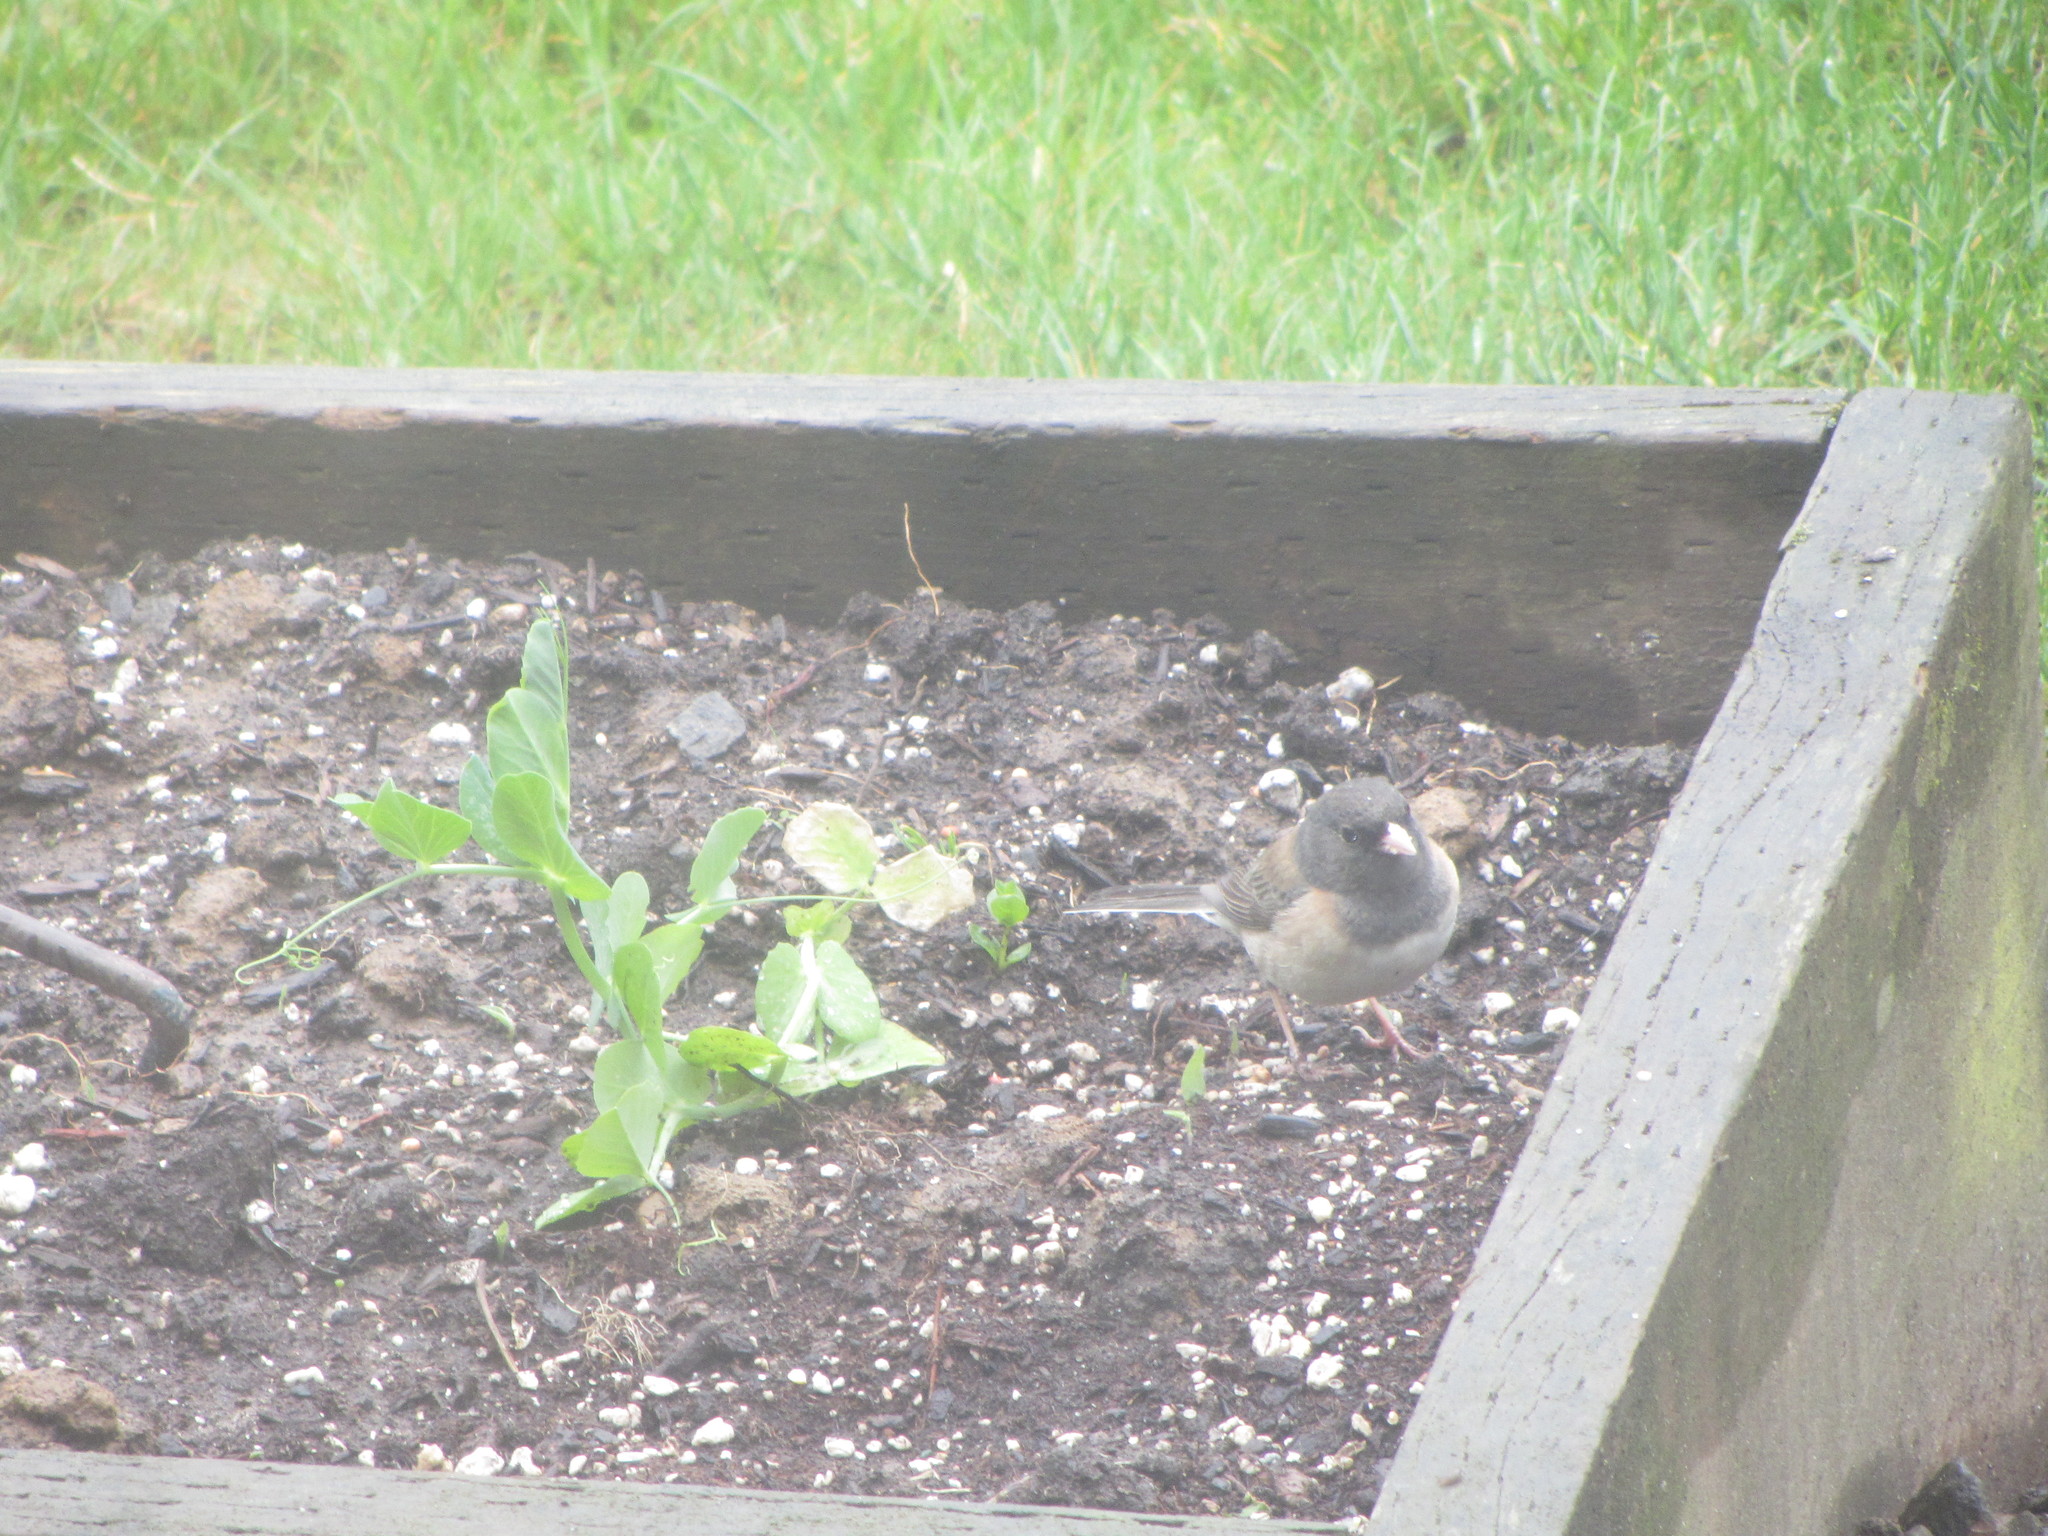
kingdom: Animalia
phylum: Chordata
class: Aves
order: Passeriformes
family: Passerellidae
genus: Junco
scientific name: Junco hyemalis
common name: Dark-eyed junco
